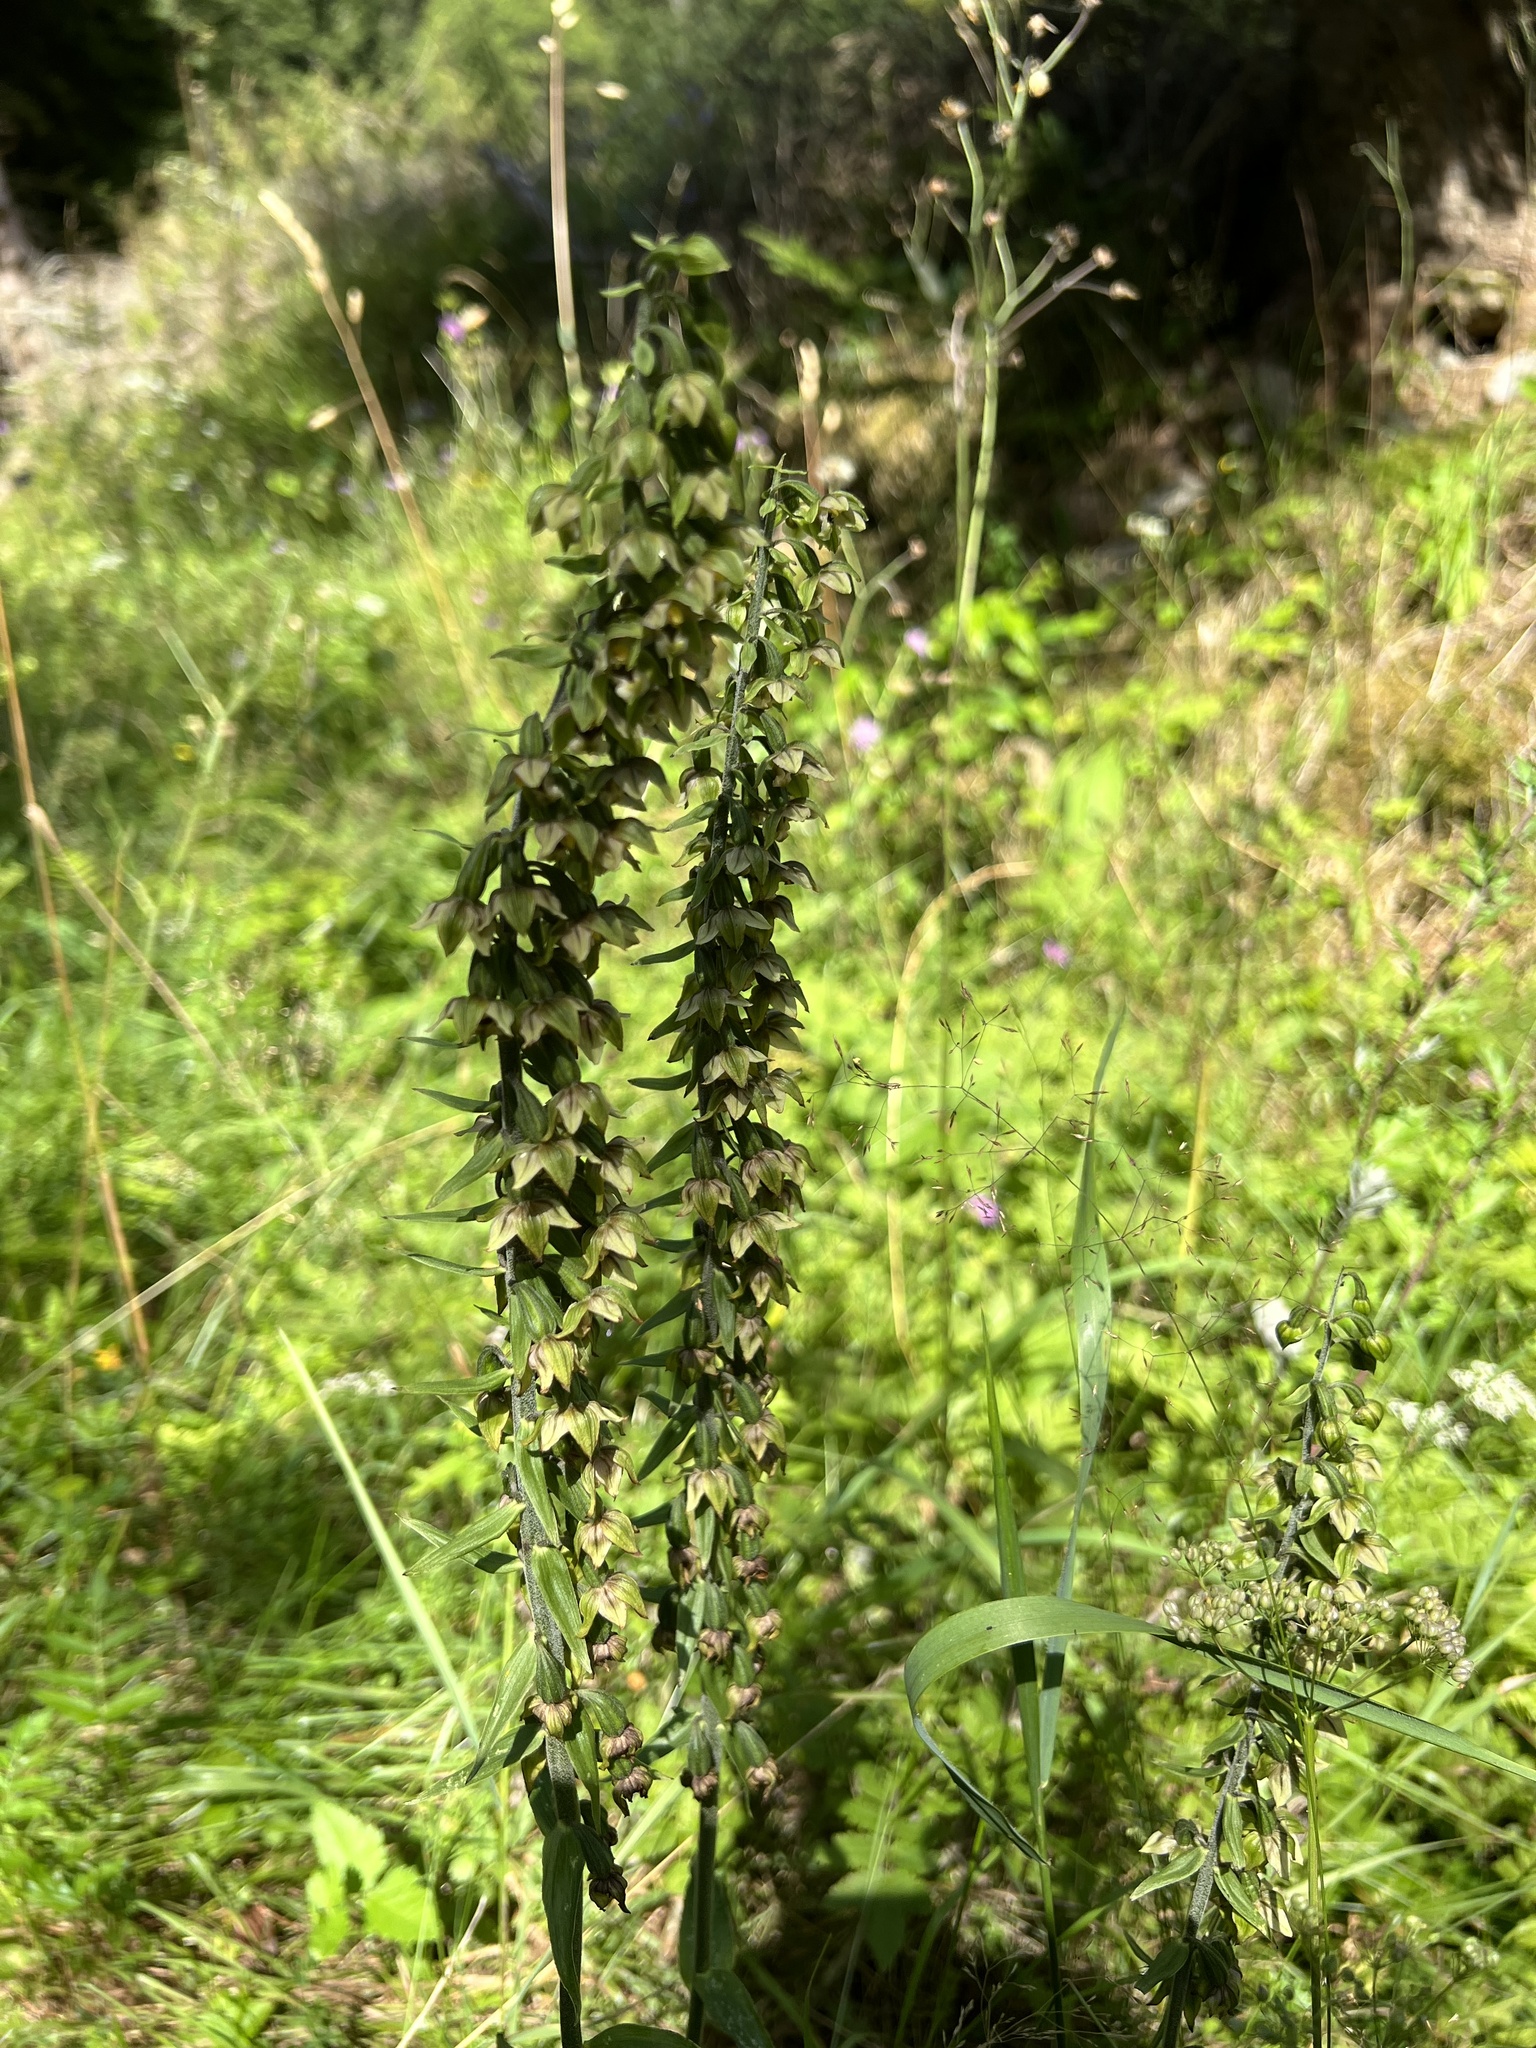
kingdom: Plantae
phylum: Tracheophyta
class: Liliopsida
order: Asparagales
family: Orchidaceae
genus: Epipactis
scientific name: Epipactis helleborine
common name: Broad-leaved helleborine
